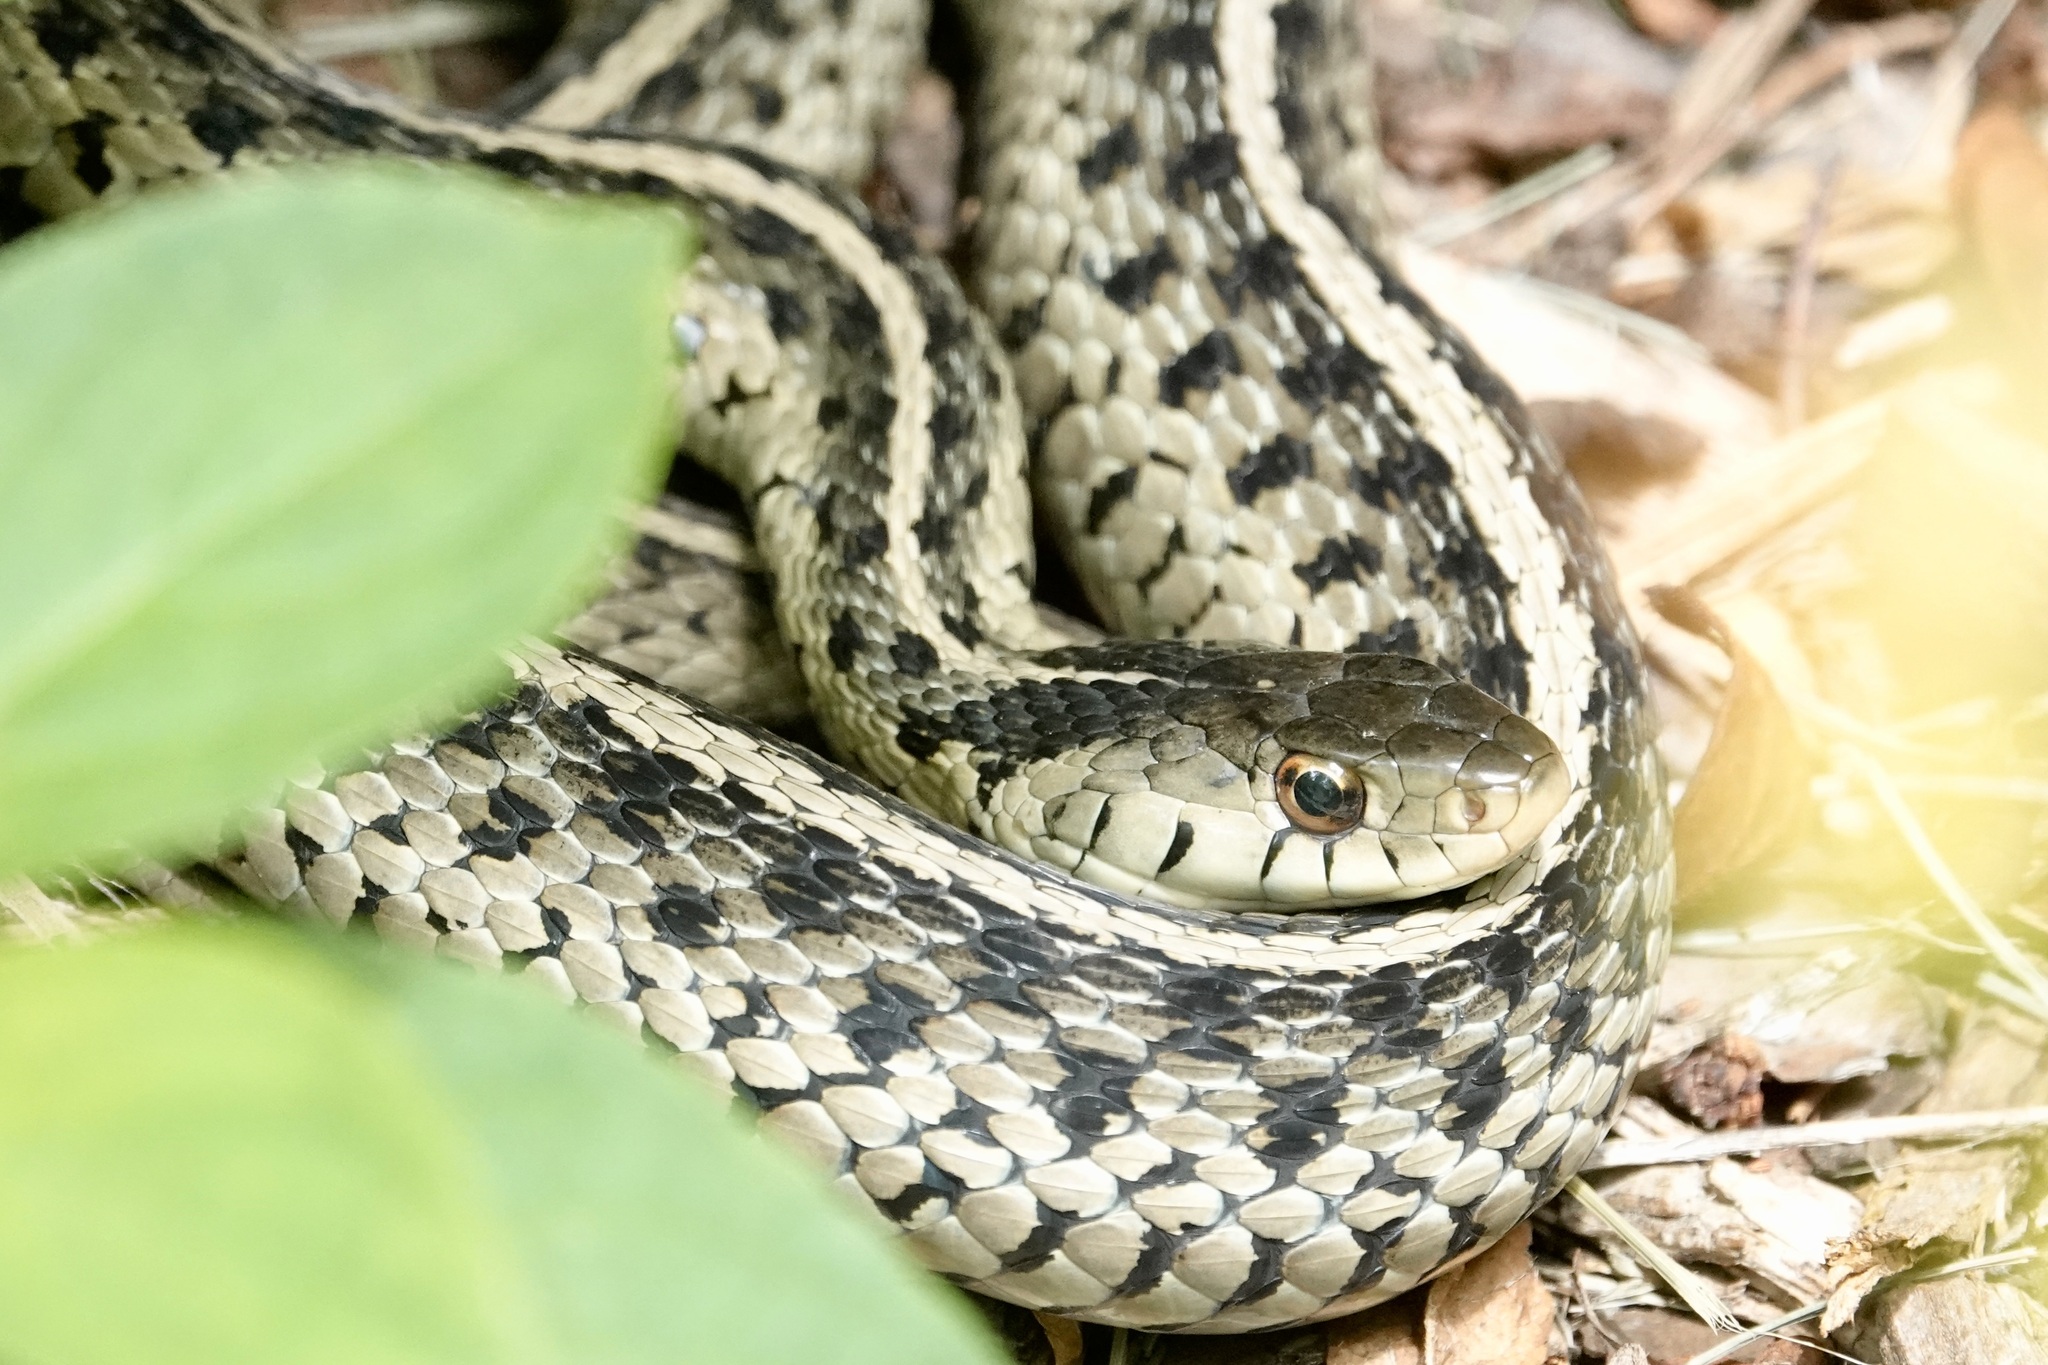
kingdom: Animalia
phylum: Chordata
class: Squamata
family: Colubridae
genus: Thamnophis
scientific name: Thamnophis sirtalis
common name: Common garter snake
